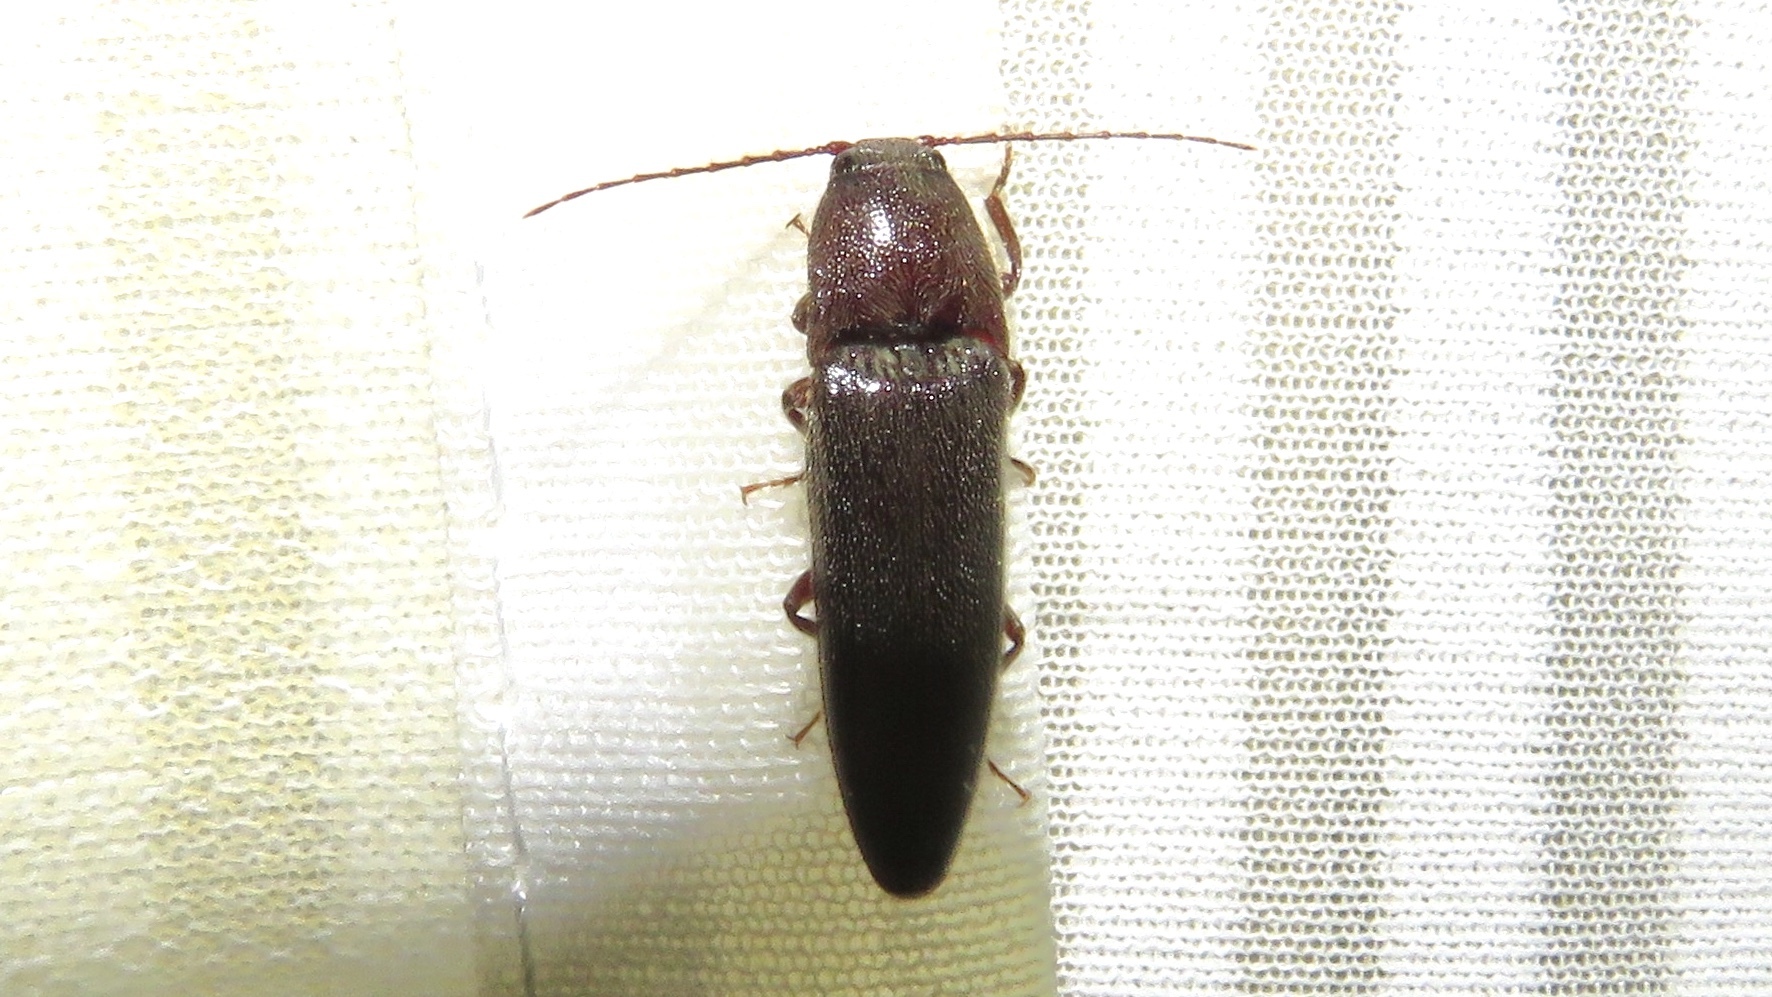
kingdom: Animalia
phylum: Arthropoda
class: Insecta
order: Coleoptera
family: Elateridae
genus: Melanotus
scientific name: Melanotus castanipes
